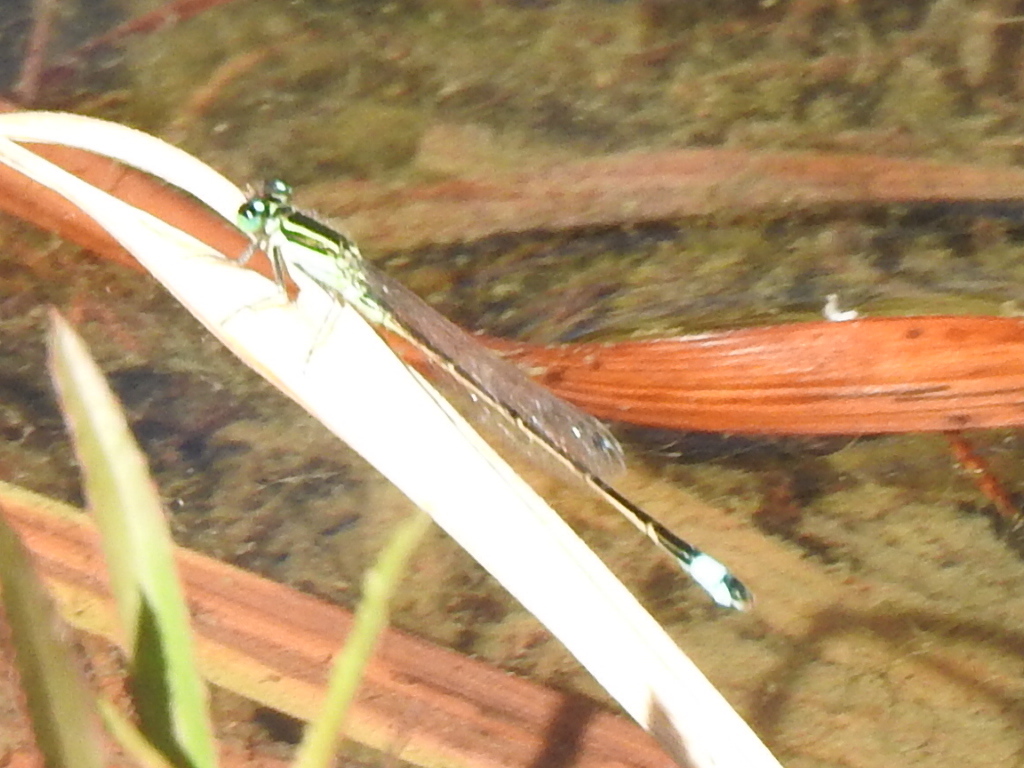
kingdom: Animalia
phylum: Arthropoda
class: Insecta
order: Odonata
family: Coenagrionidae
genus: Ischnura
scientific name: Ischnura ramburii
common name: Rambur's forktail
